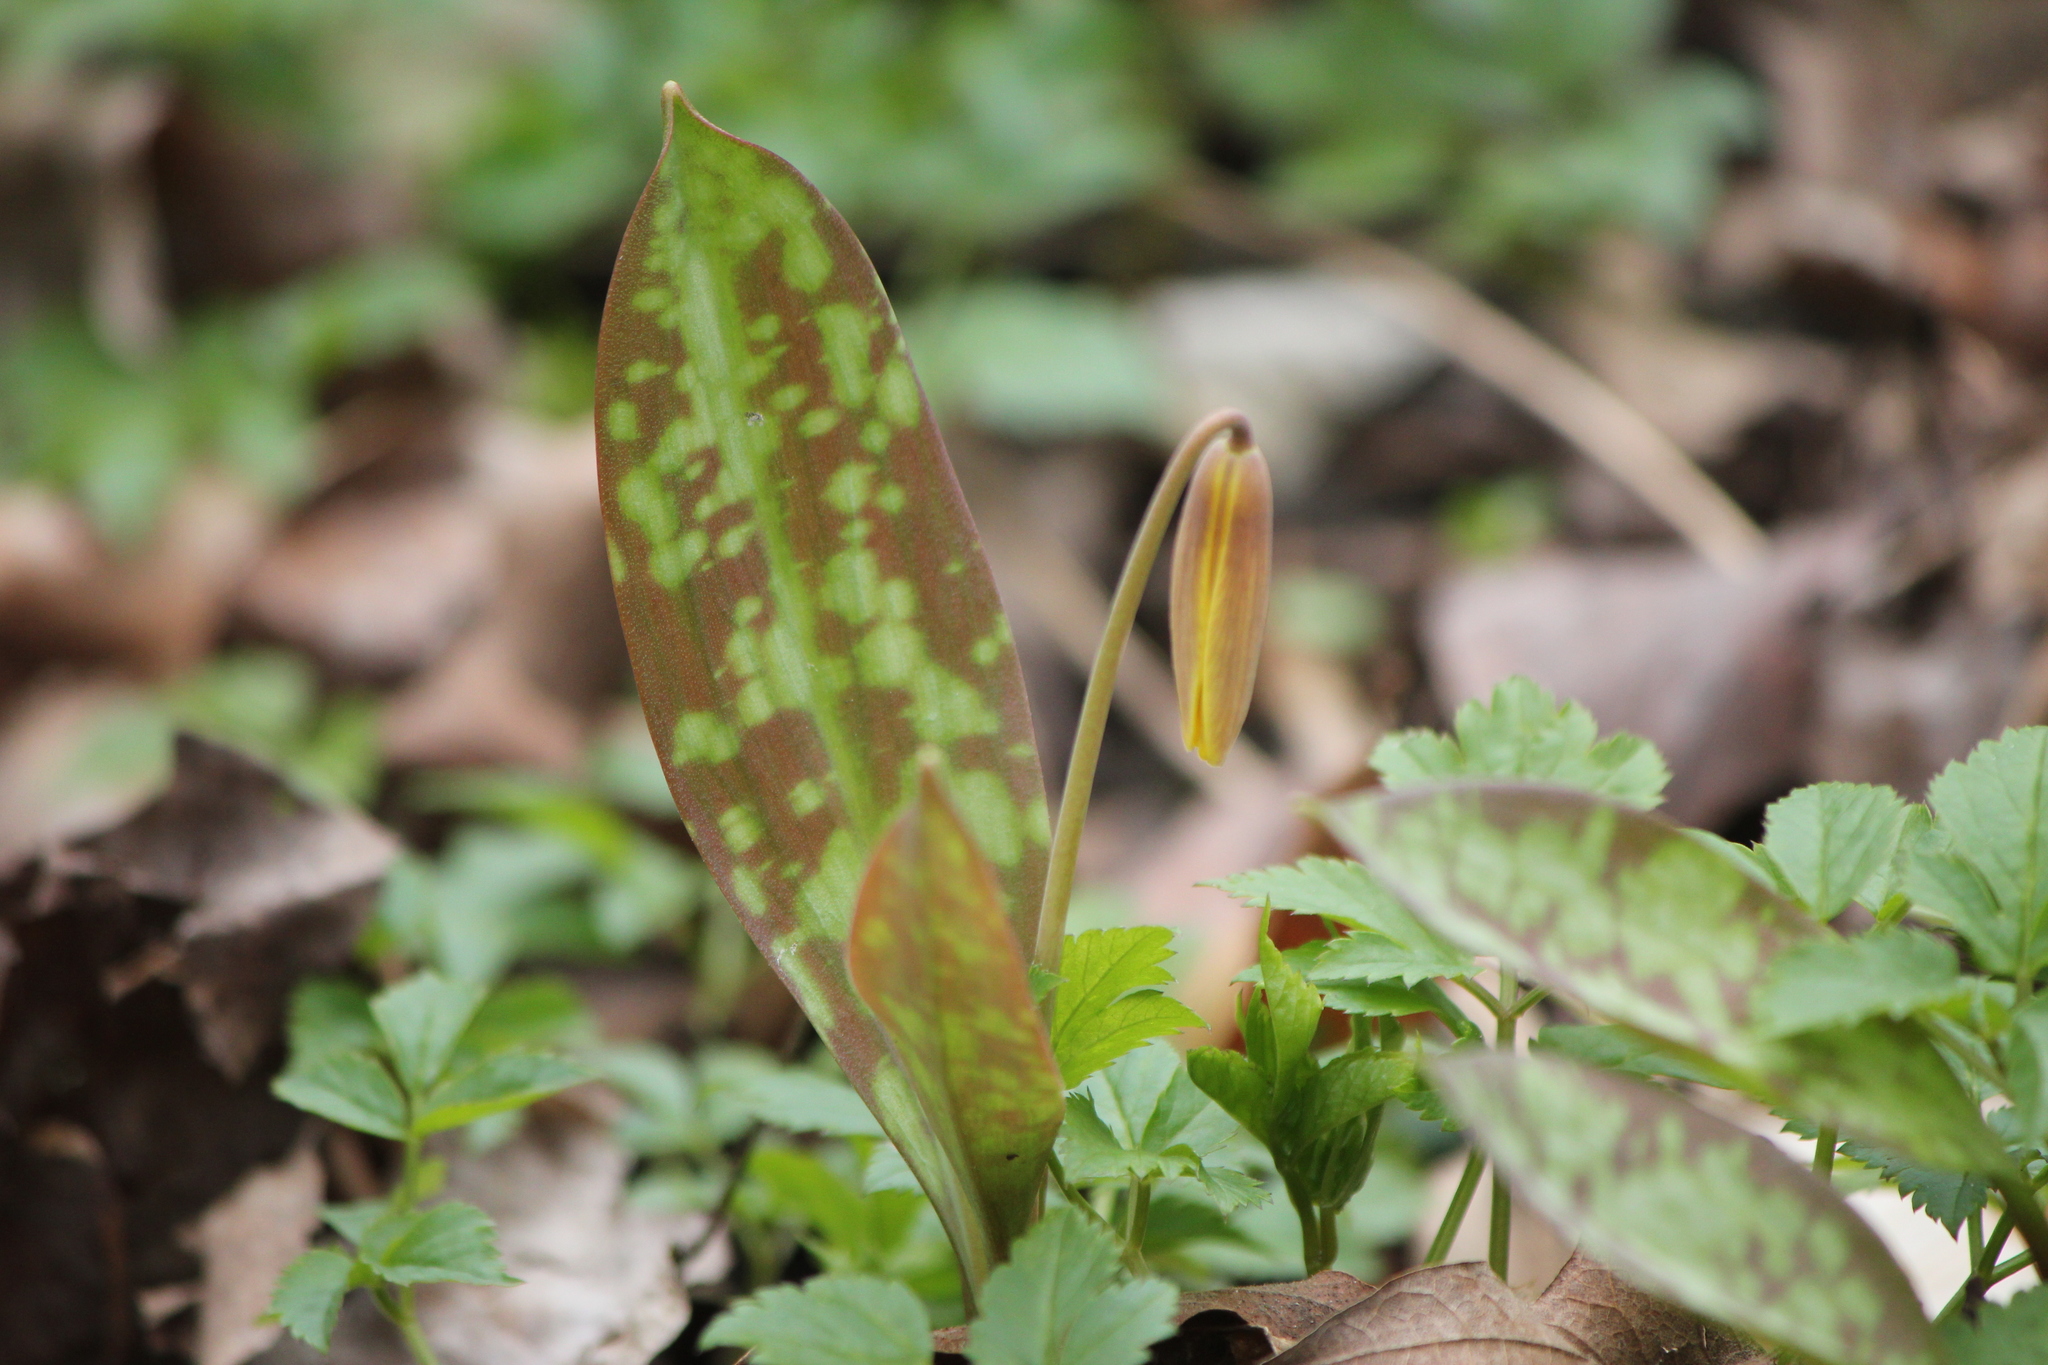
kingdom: Plantae
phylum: Tracheophyta
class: Liliopsida
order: Liliales
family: Liliaceae
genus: Erythronium
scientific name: Erythronium americanum
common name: Yellow adder's-tongue
